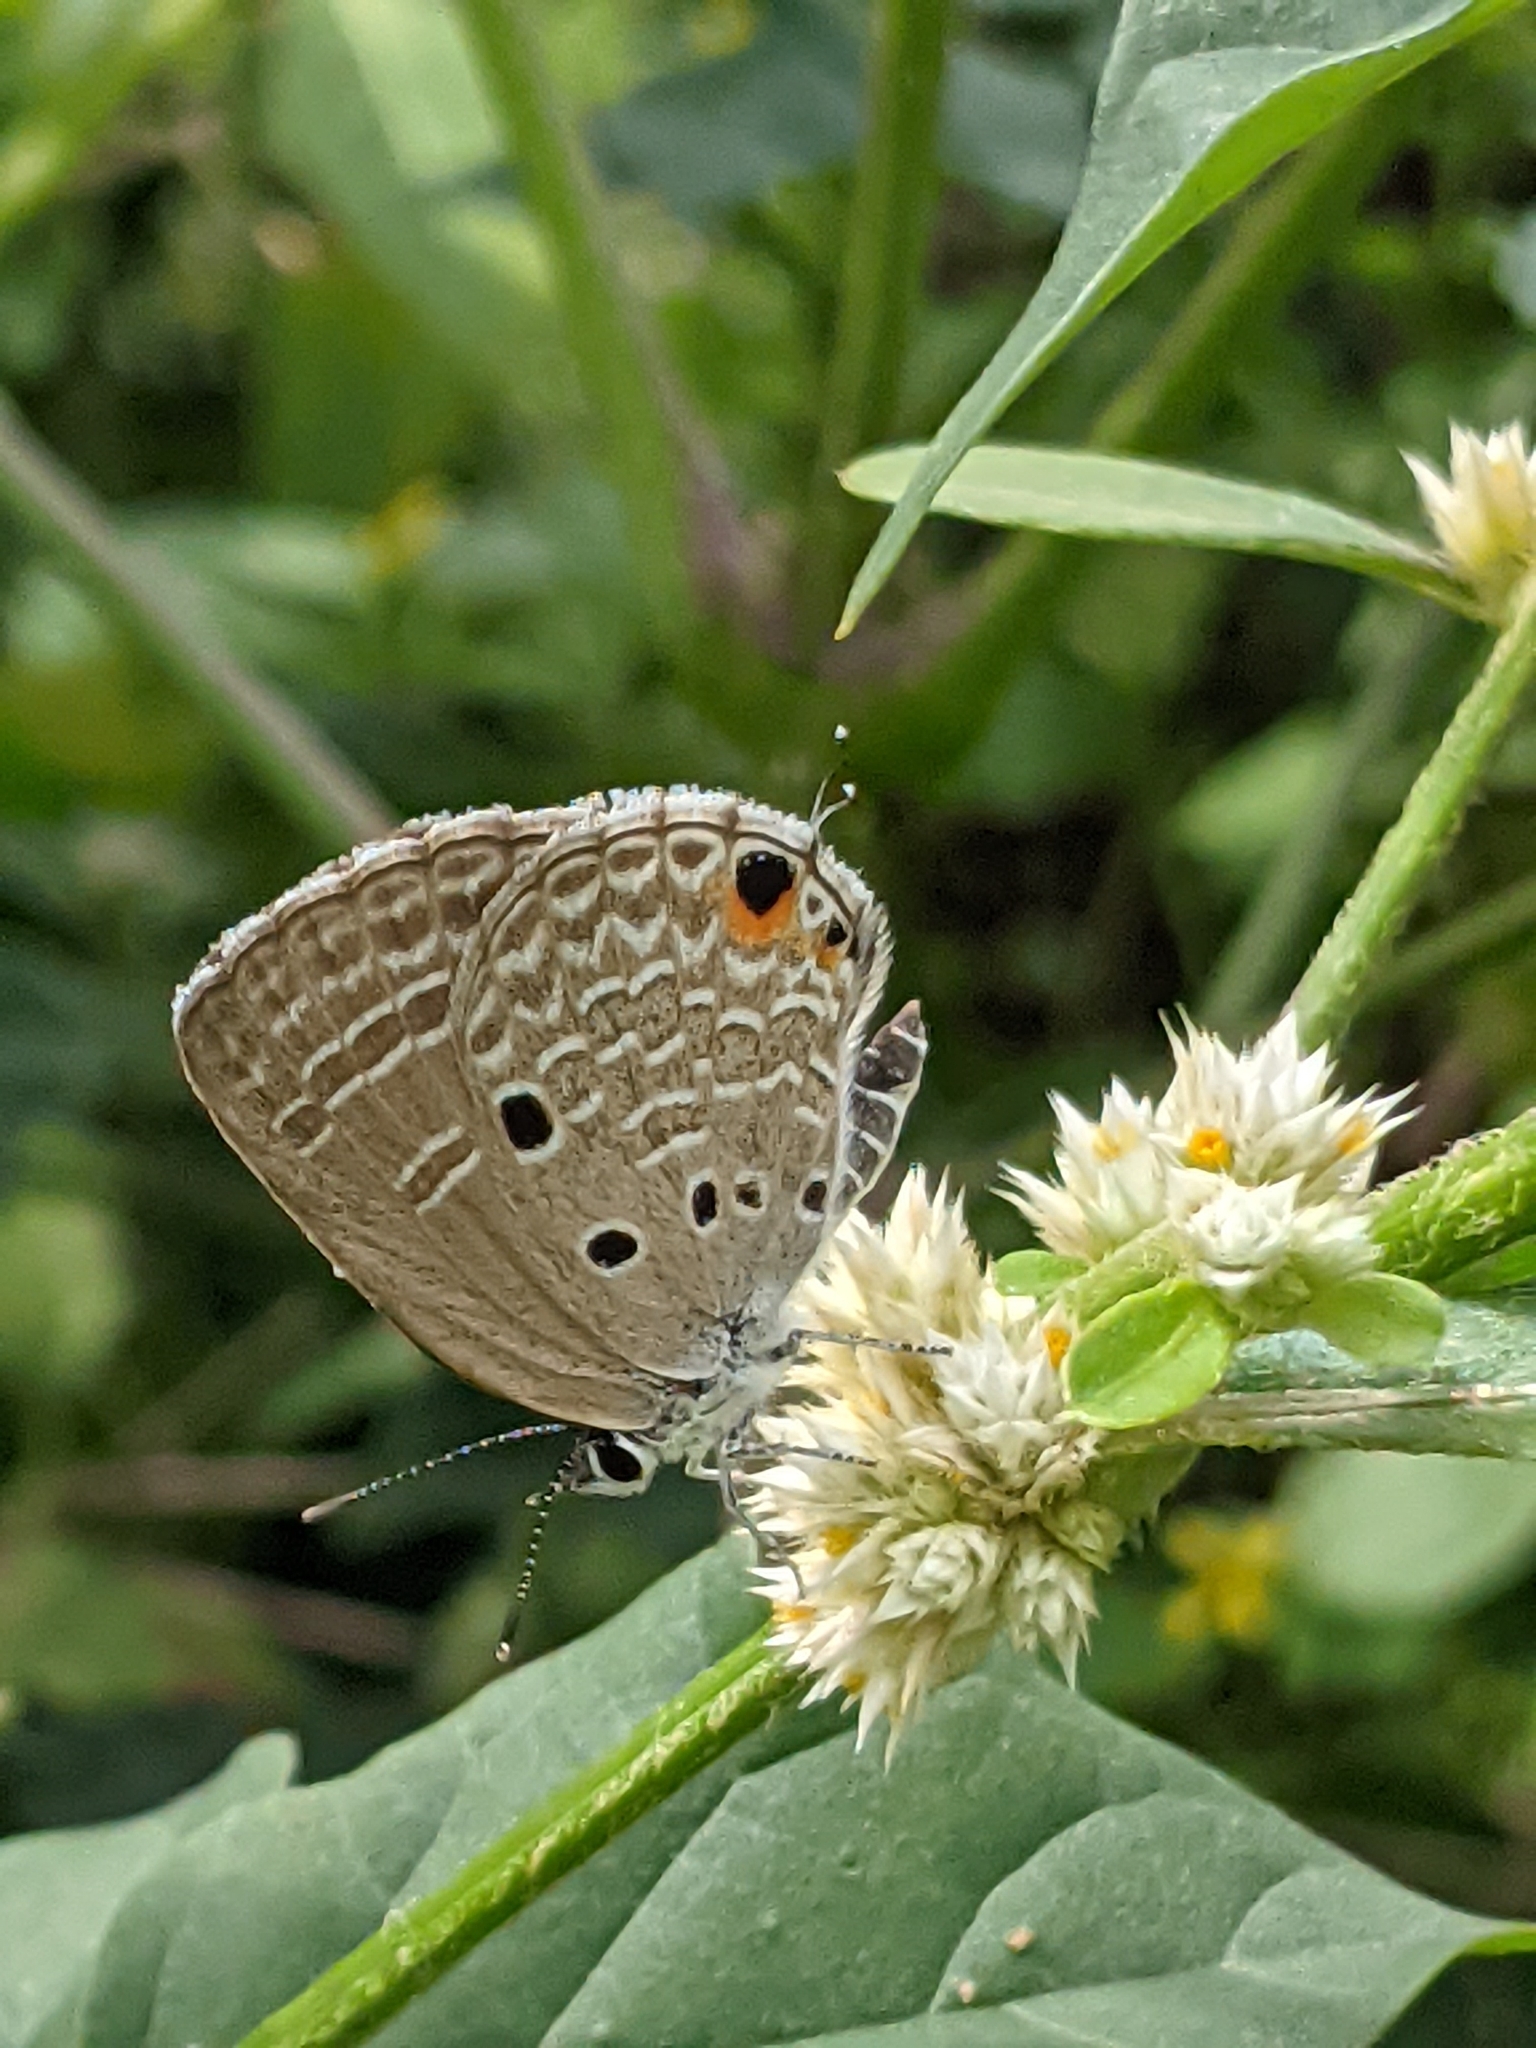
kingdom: Animalia
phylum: Arthropoda
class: Insecta
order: Lepidoptera
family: Lycaenidae
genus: Luthrodes
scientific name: Luthrodes pandava
